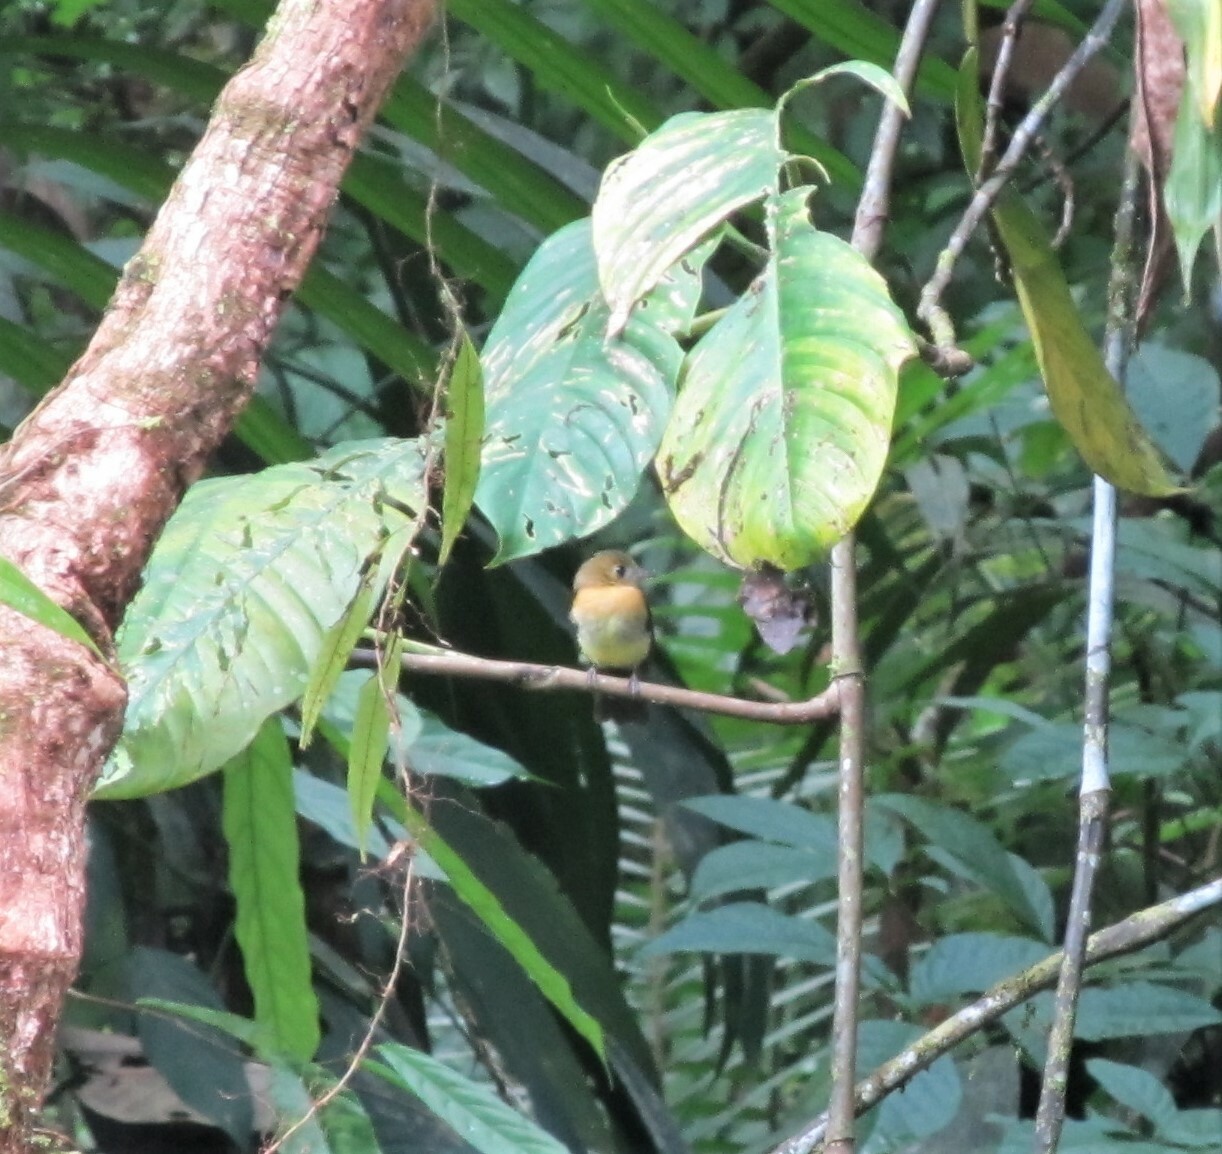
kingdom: Animalia
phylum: Chordata
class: Aves
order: Passeriformes
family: Tyrannidae
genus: Myiobius
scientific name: Myiobius barbatus
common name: Whiskered myiobius
